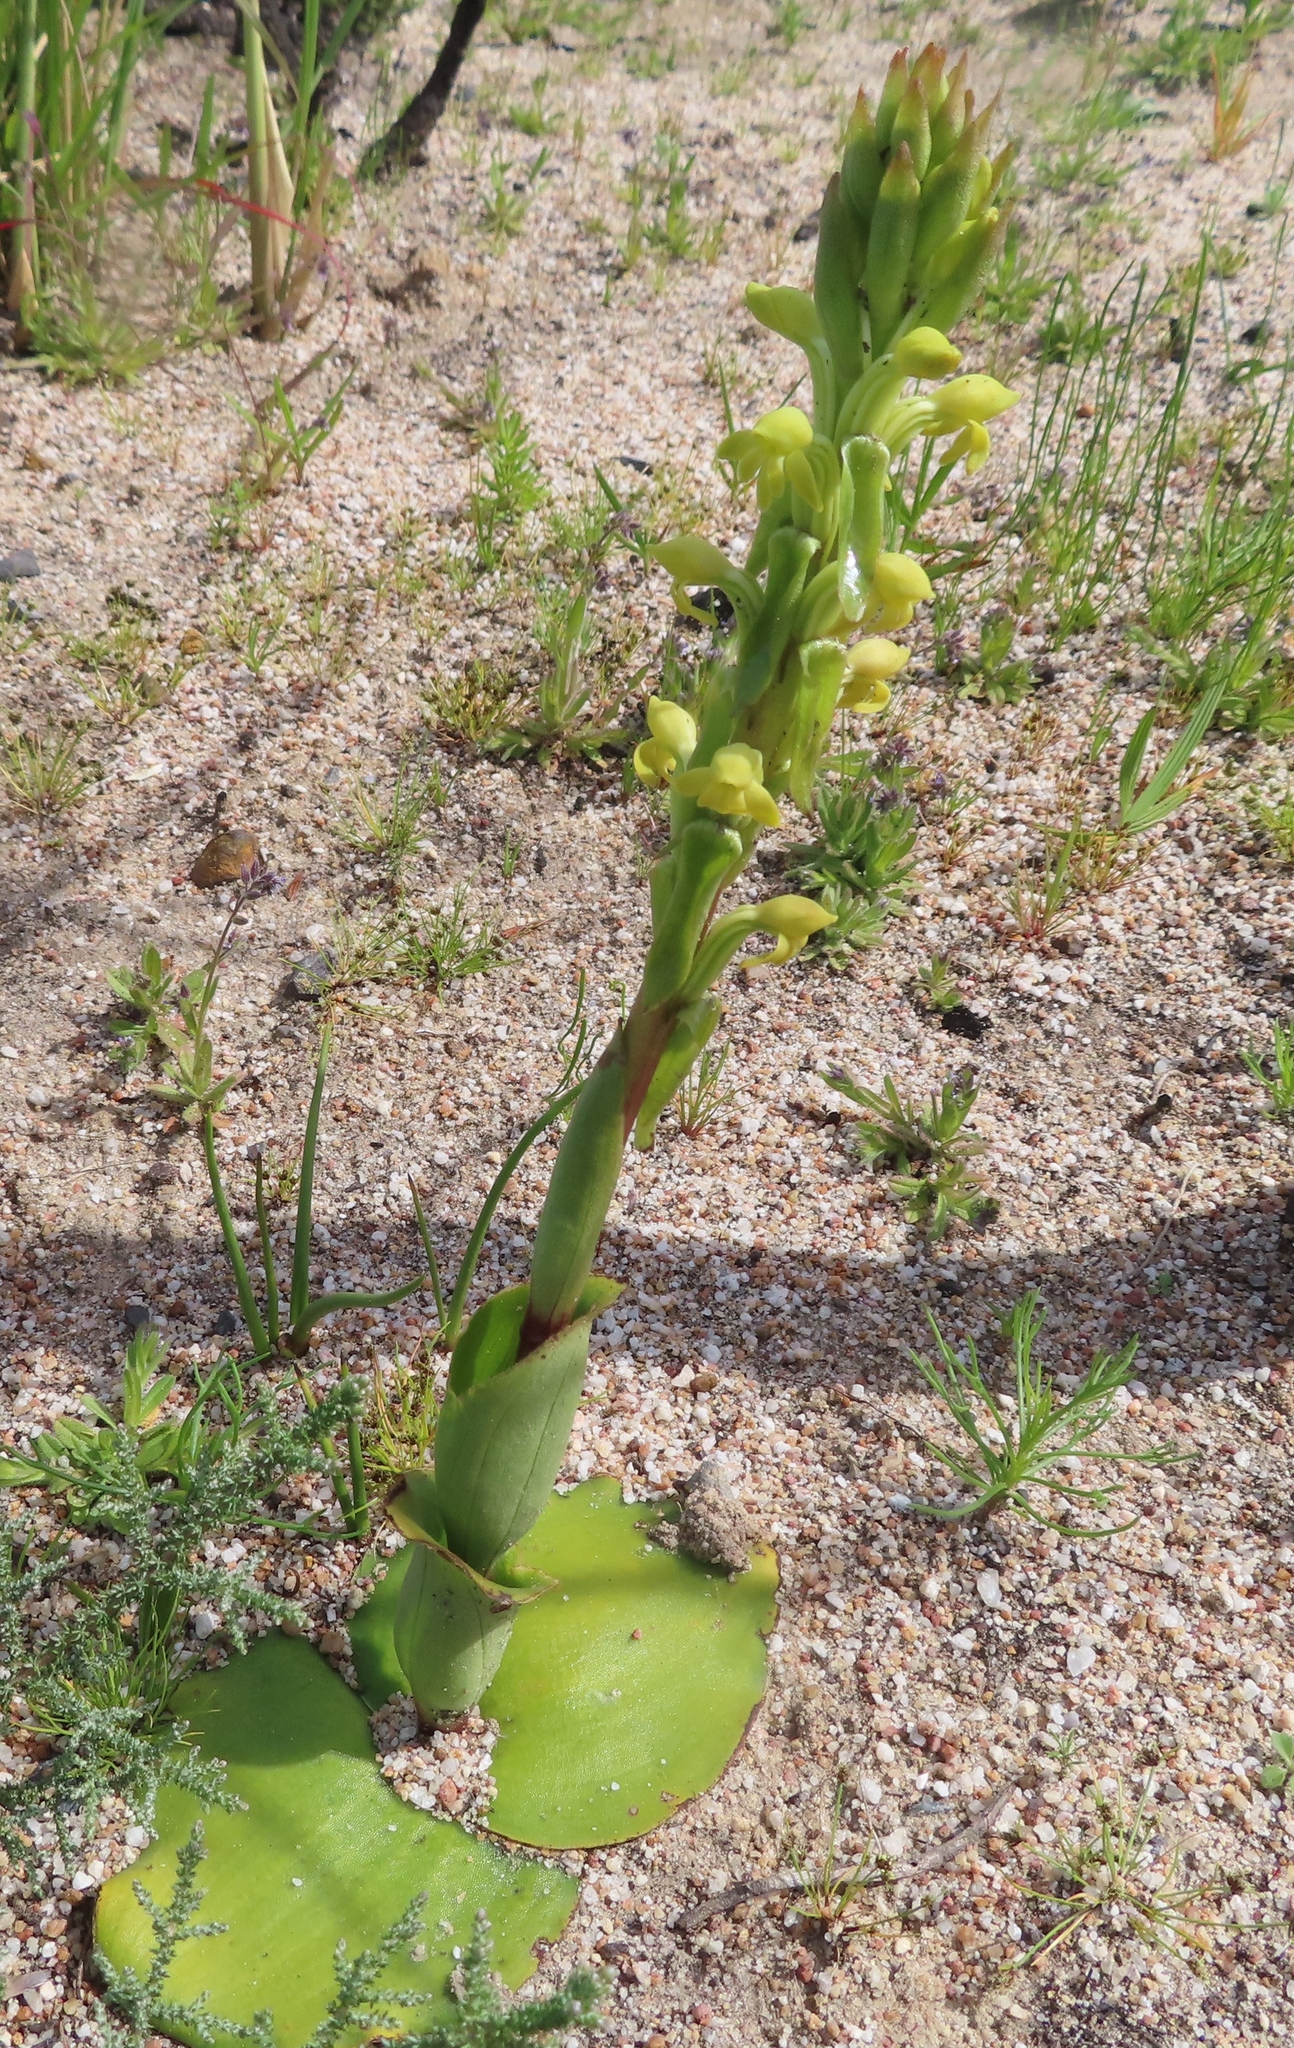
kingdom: Plantae
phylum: Tracheophyta
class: Liliopsida
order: Asparagales
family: Orchidaceae
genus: Satyrium
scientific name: Satyrium bicorne
